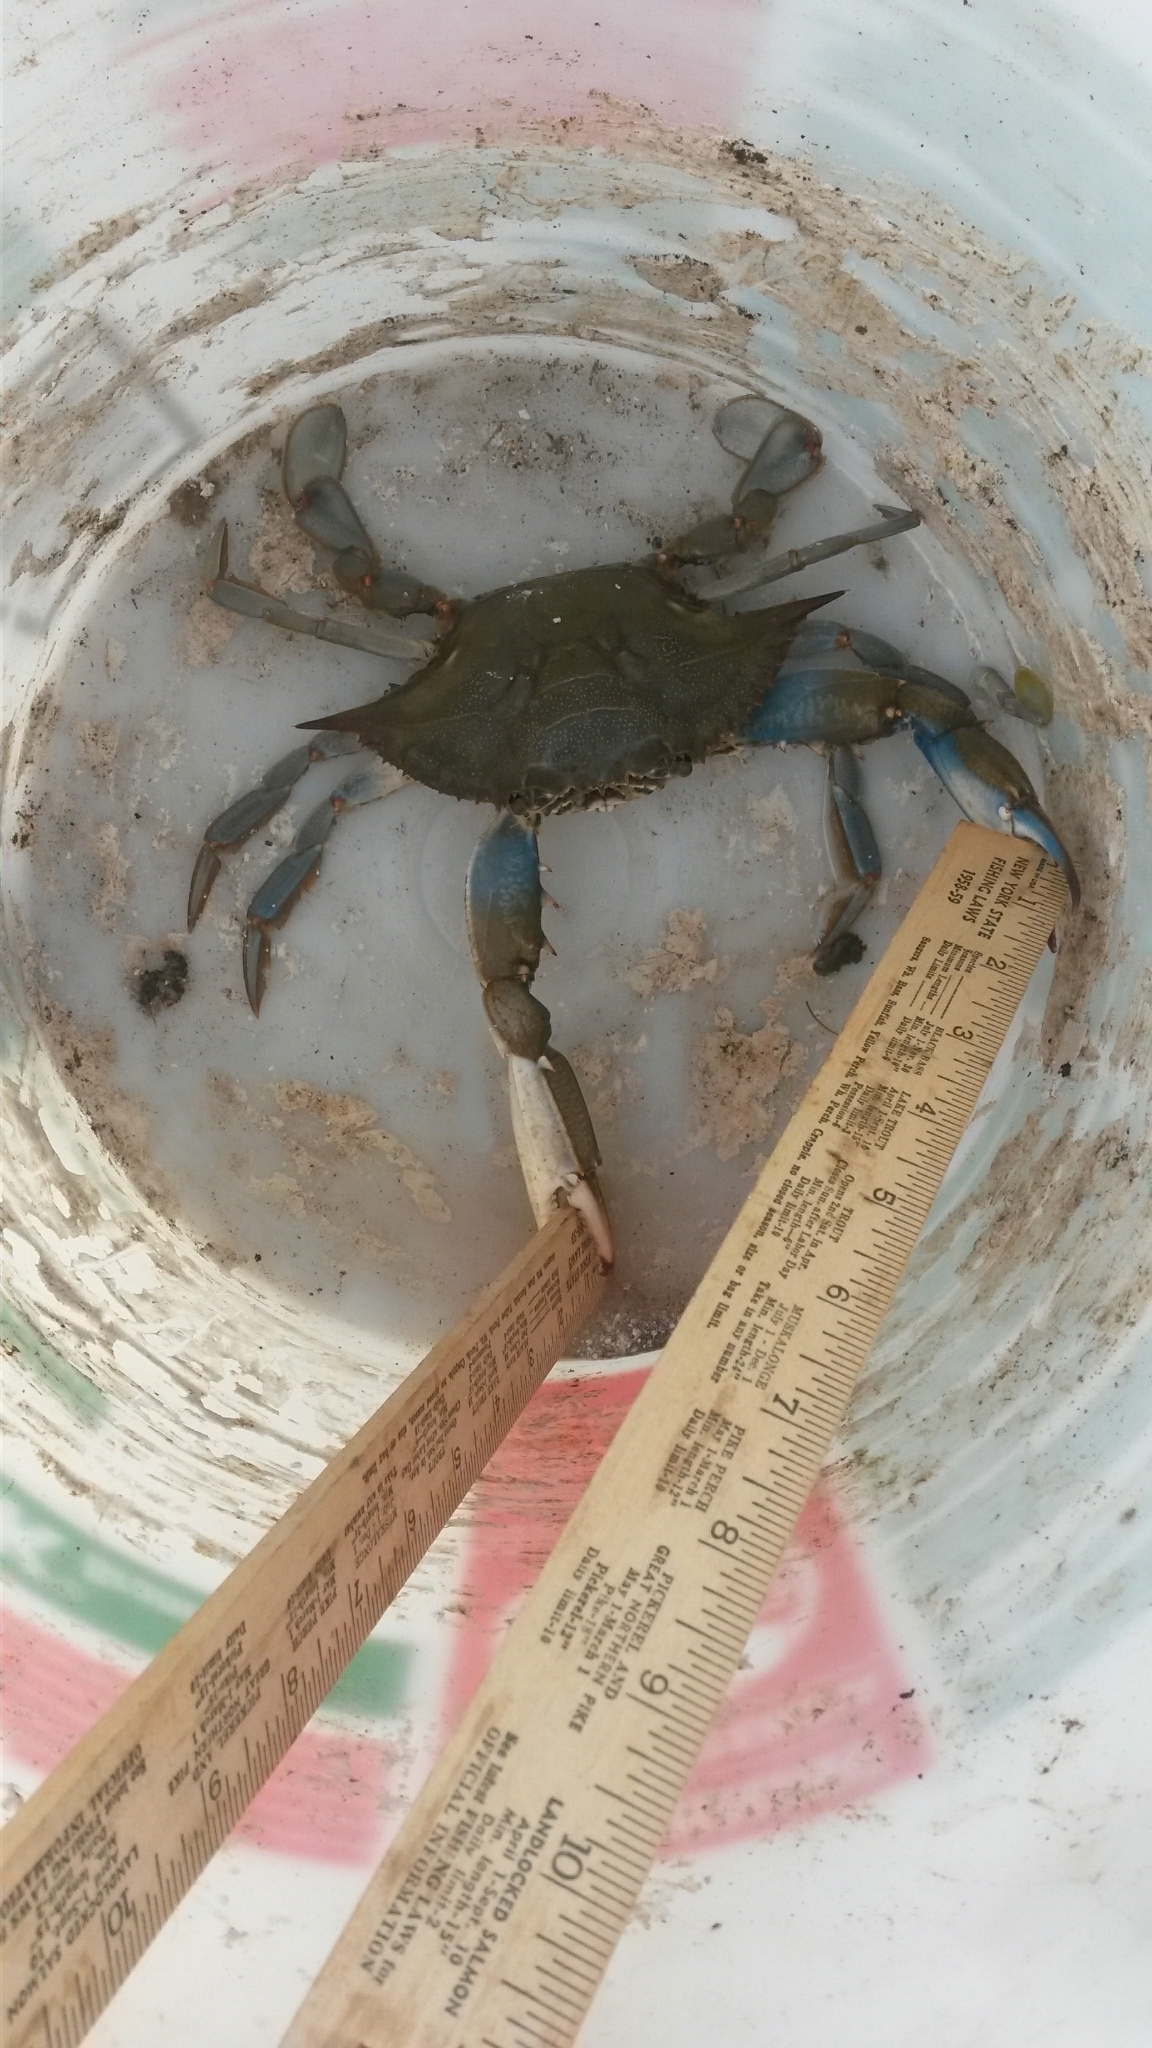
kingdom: Animalia
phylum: Arthropoda
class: Malacostraca
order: Decapoda
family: Portunidae
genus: Callinectes
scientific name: Callinectes sapidus
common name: Blue crab
